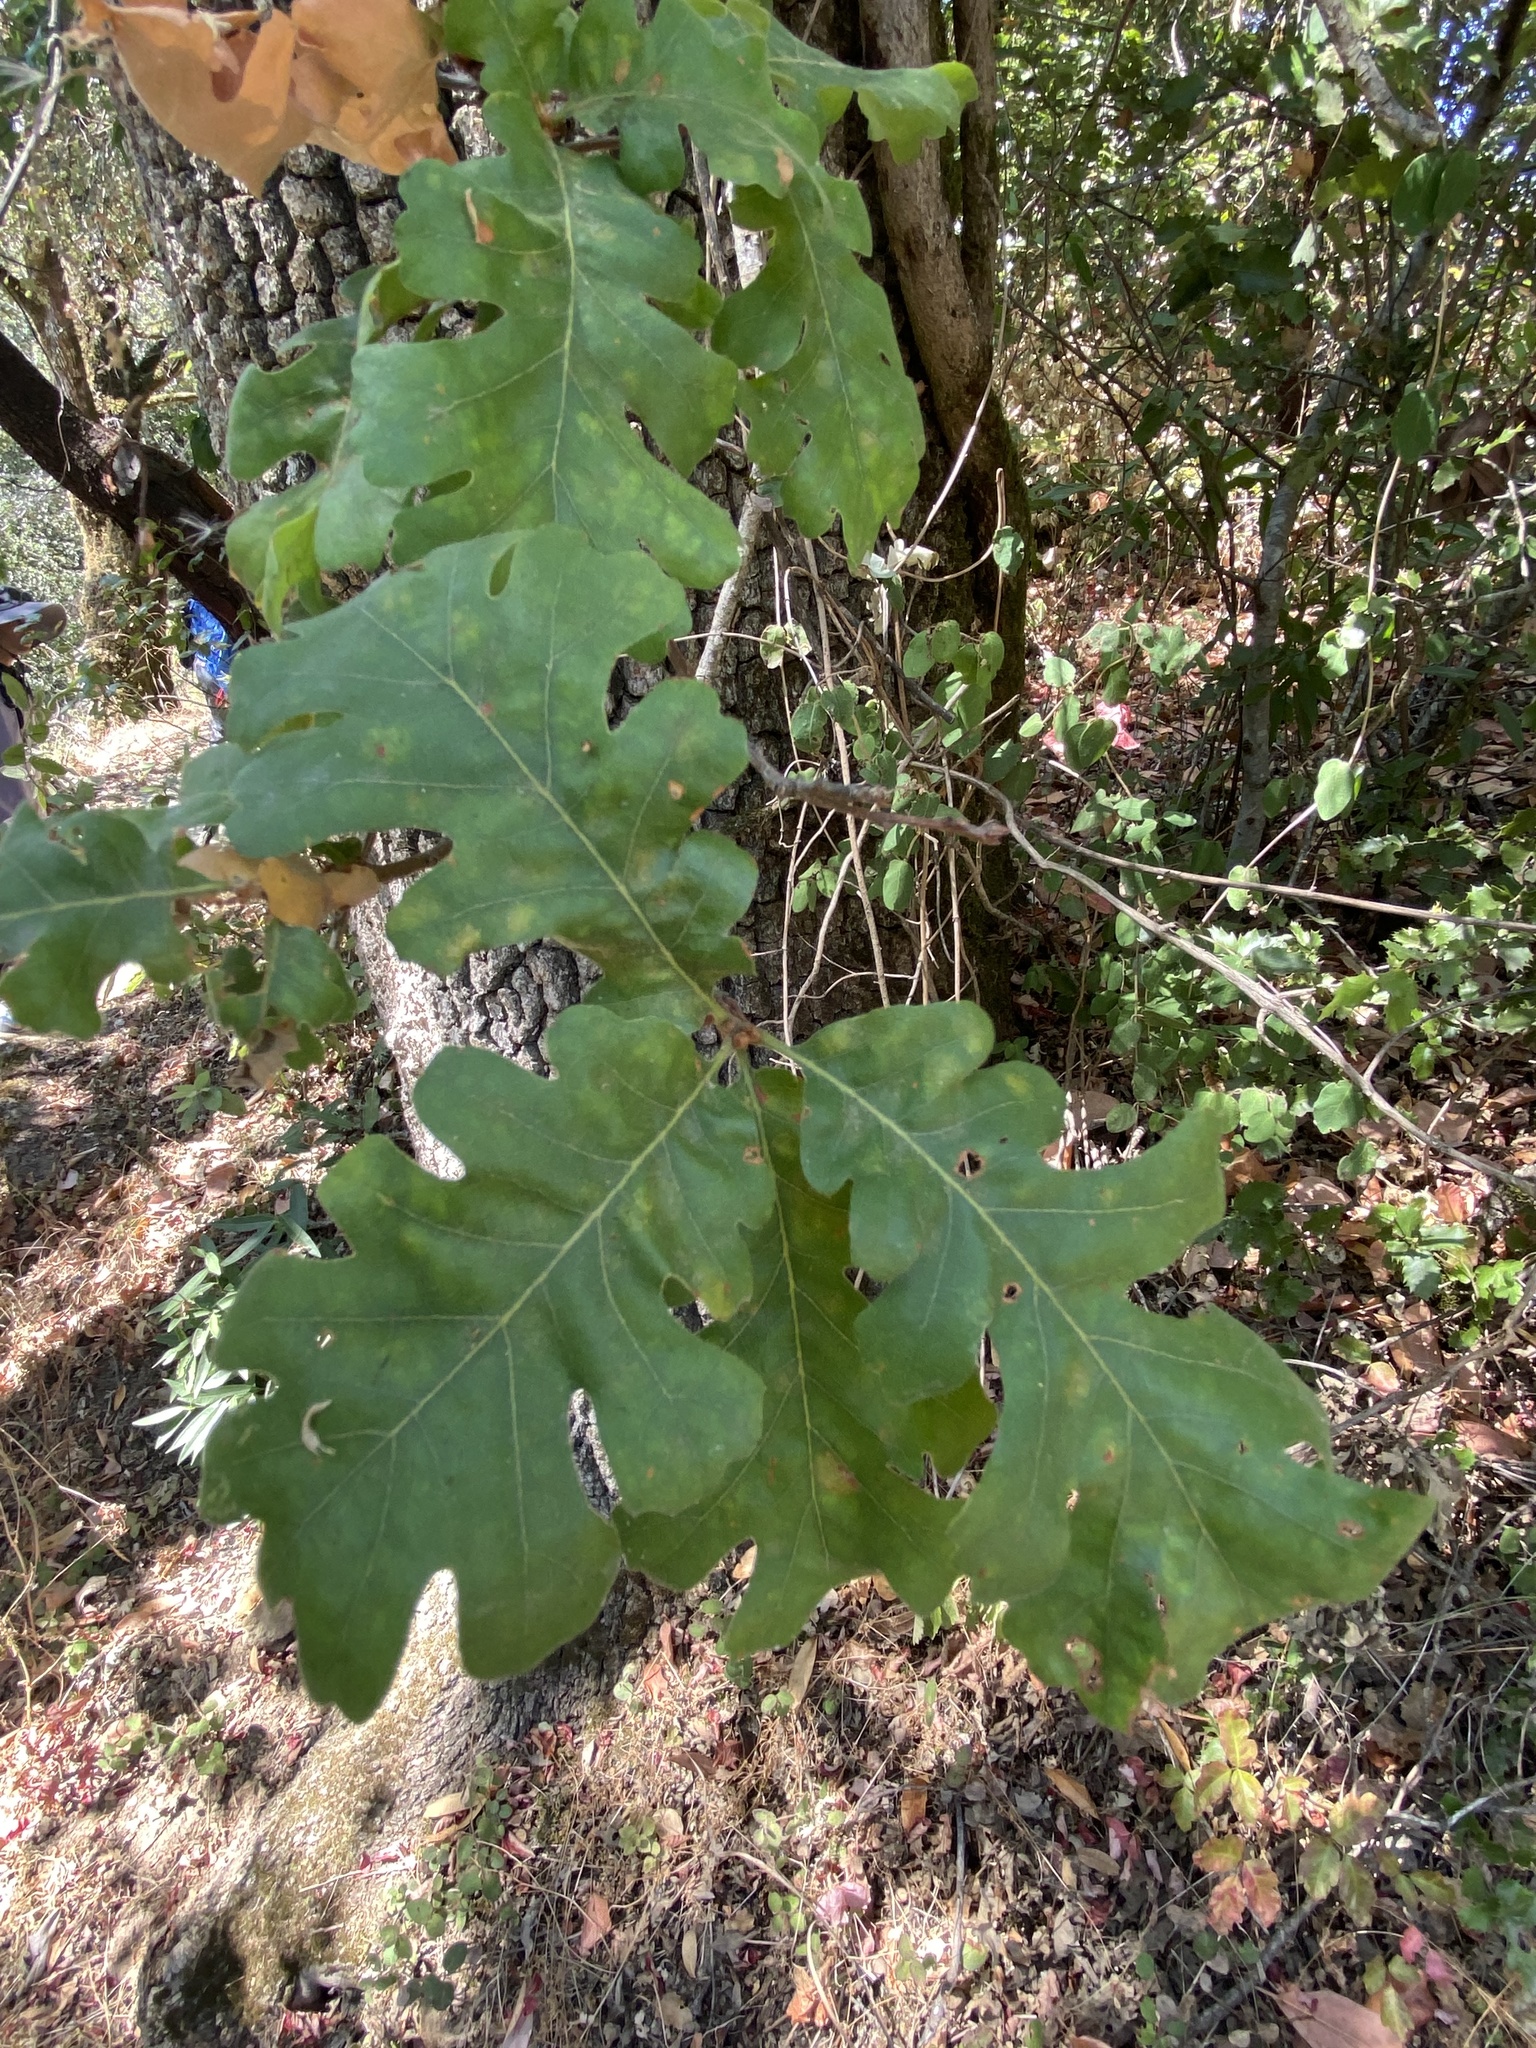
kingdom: Plantae
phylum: Tracheophyta
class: Magnoliopsida
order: Fagales
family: Fagaceae
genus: Quercus
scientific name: Quercus lobata
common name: Valley oak
